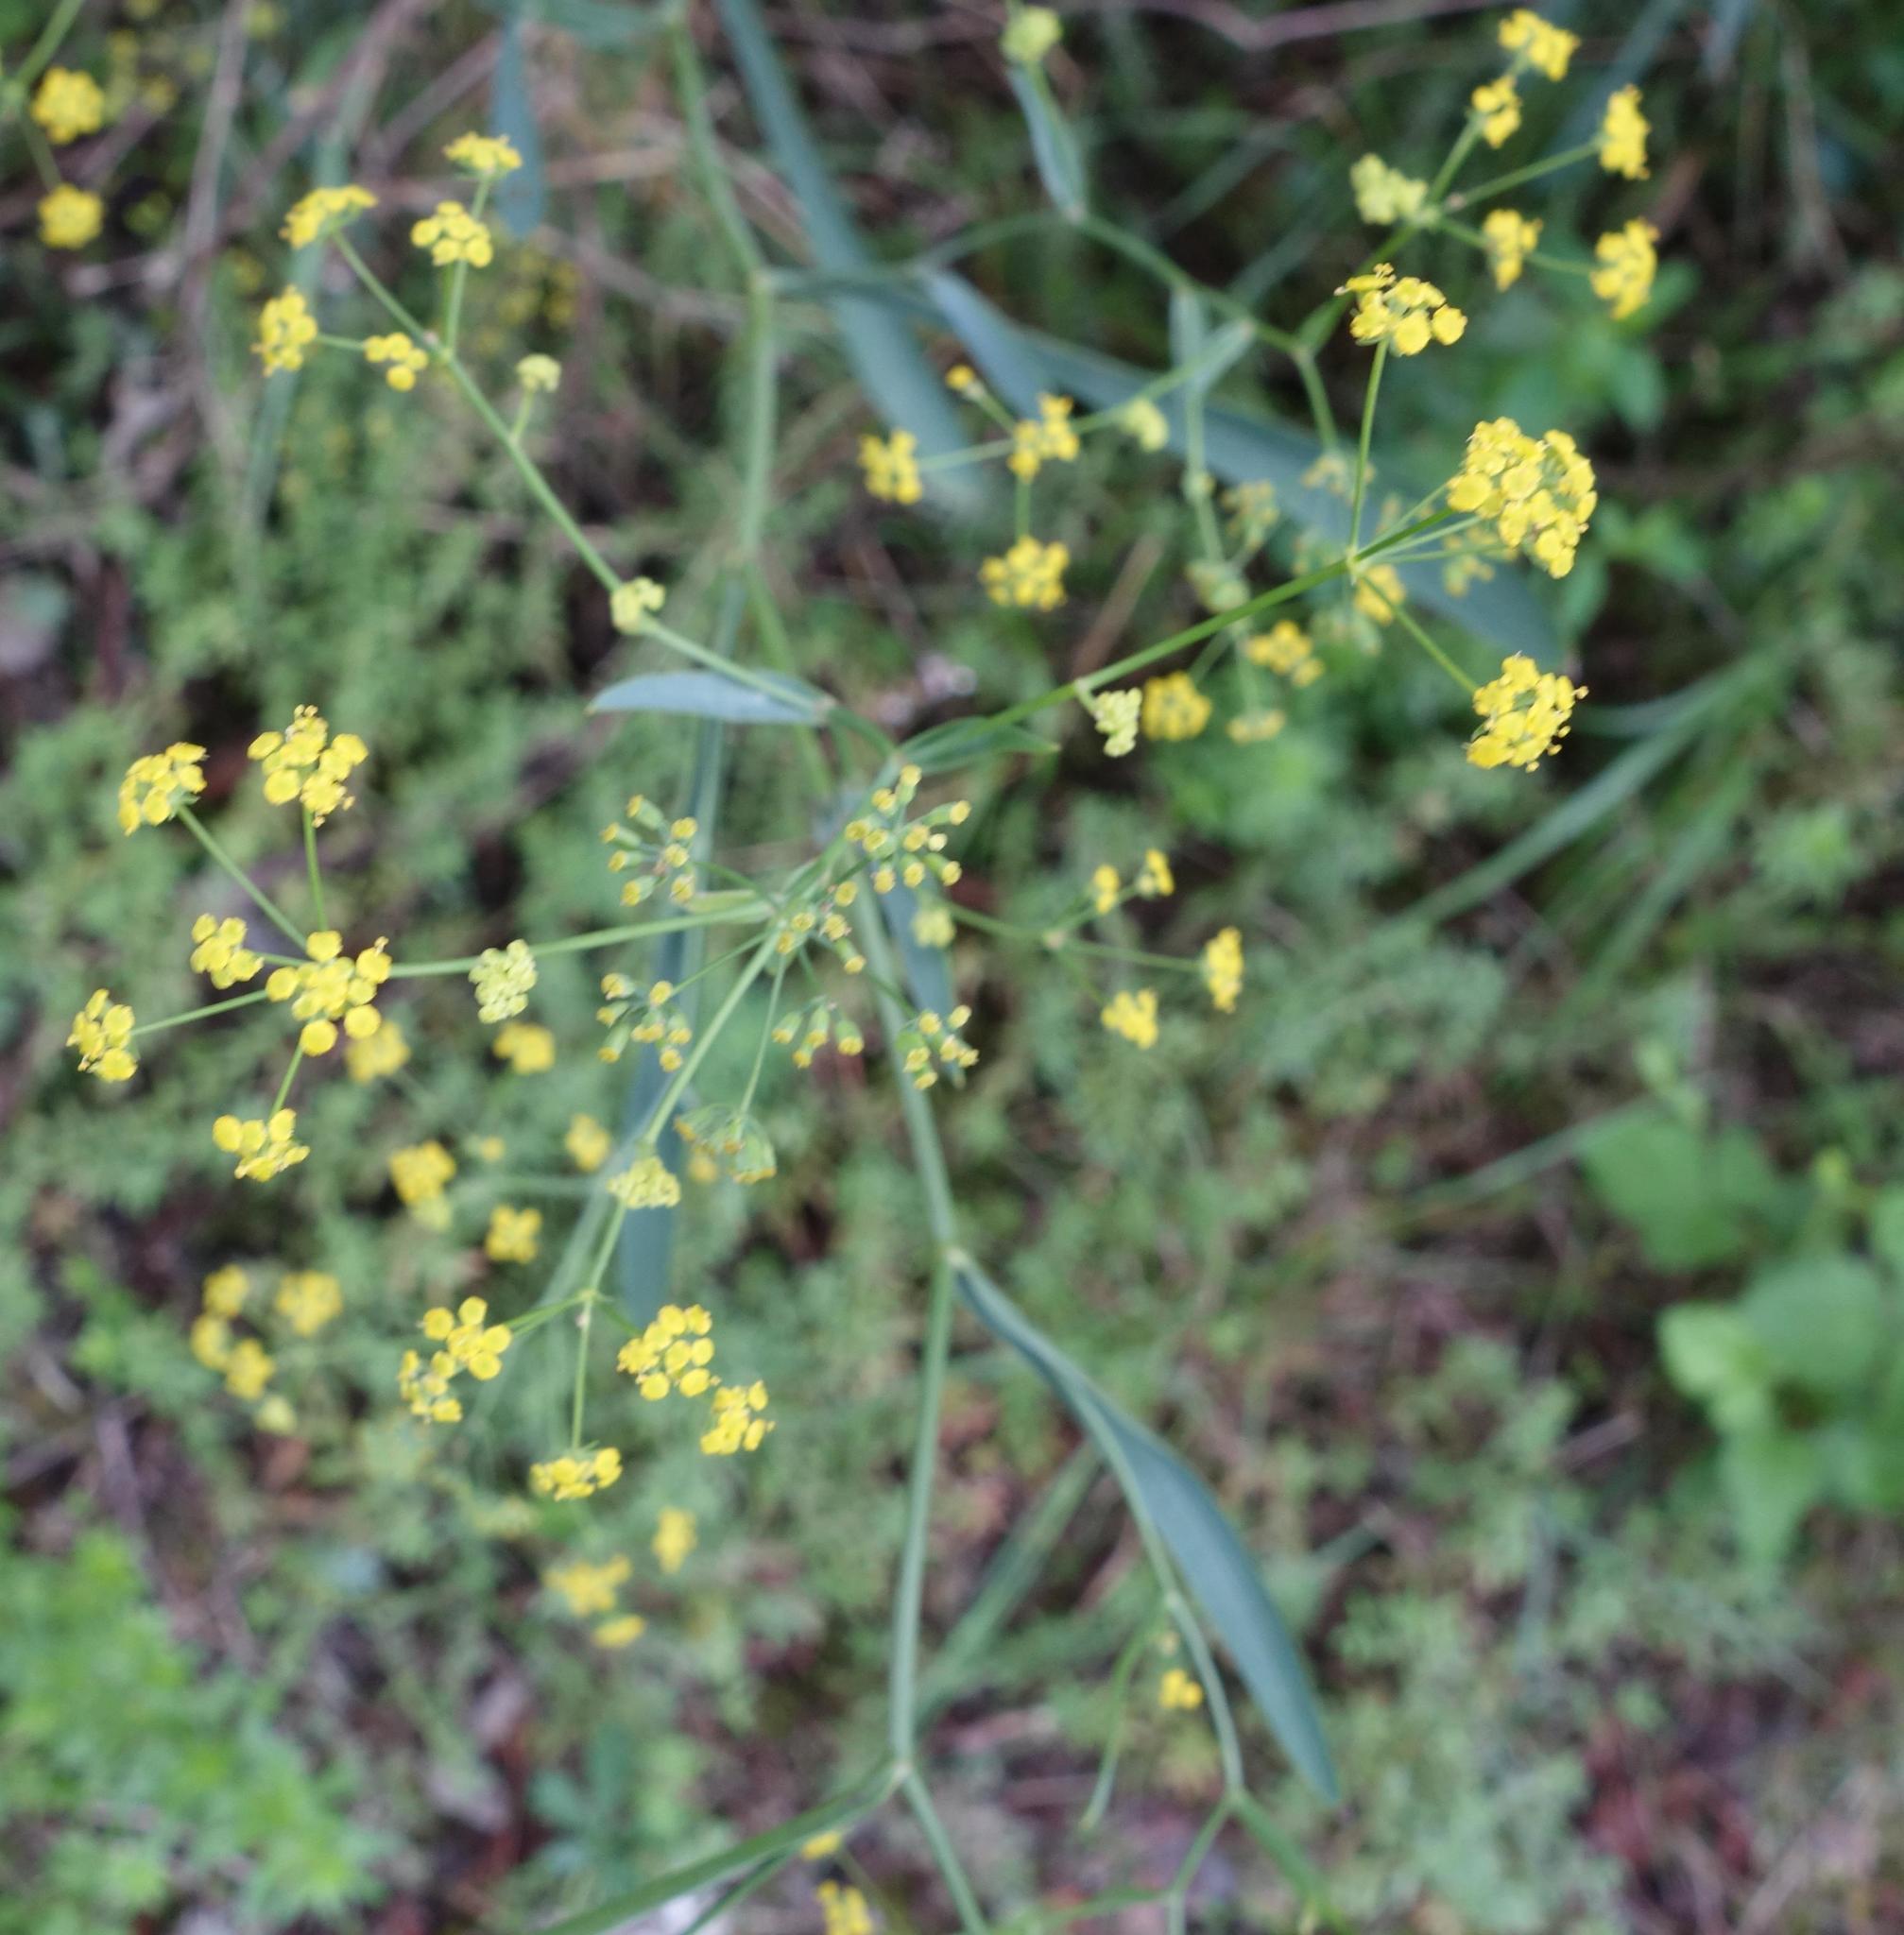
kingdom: Plantae
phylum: Tracheophyta
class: Magnoliopsida
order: Apiales
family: Apiaceae
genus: Bupleurum
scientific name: Bupleurum falcatum
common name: Sickle-leaved hare's-ear
